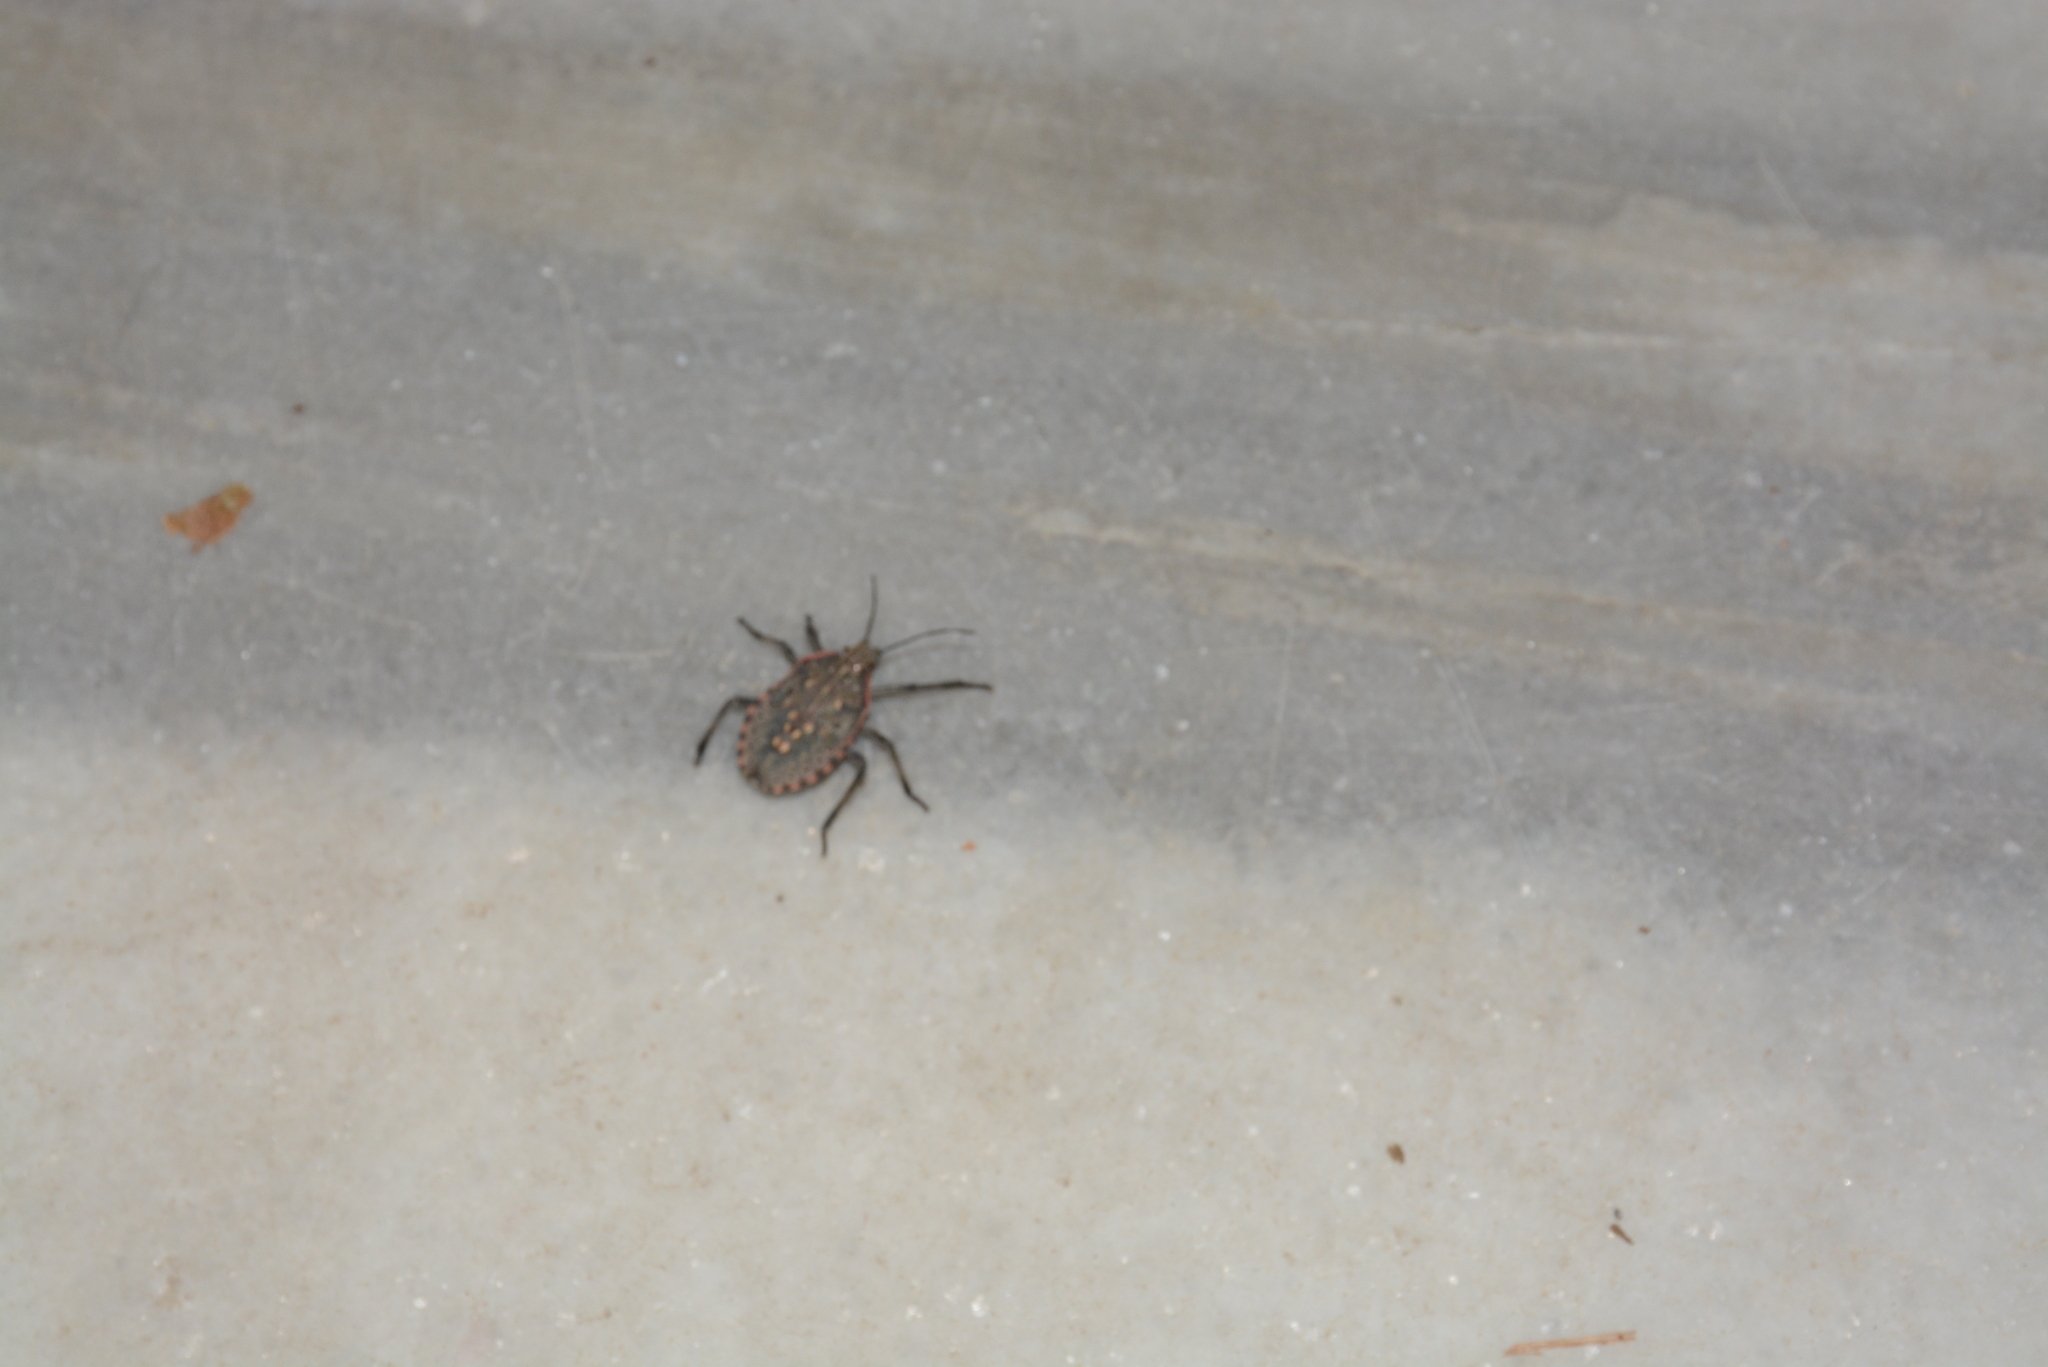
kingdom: Animalia
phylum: Arthropoda
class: Insecta
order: Hemiptera
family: Pentatomidae
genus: Apodiphus
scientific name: Apodiphus amygdali
